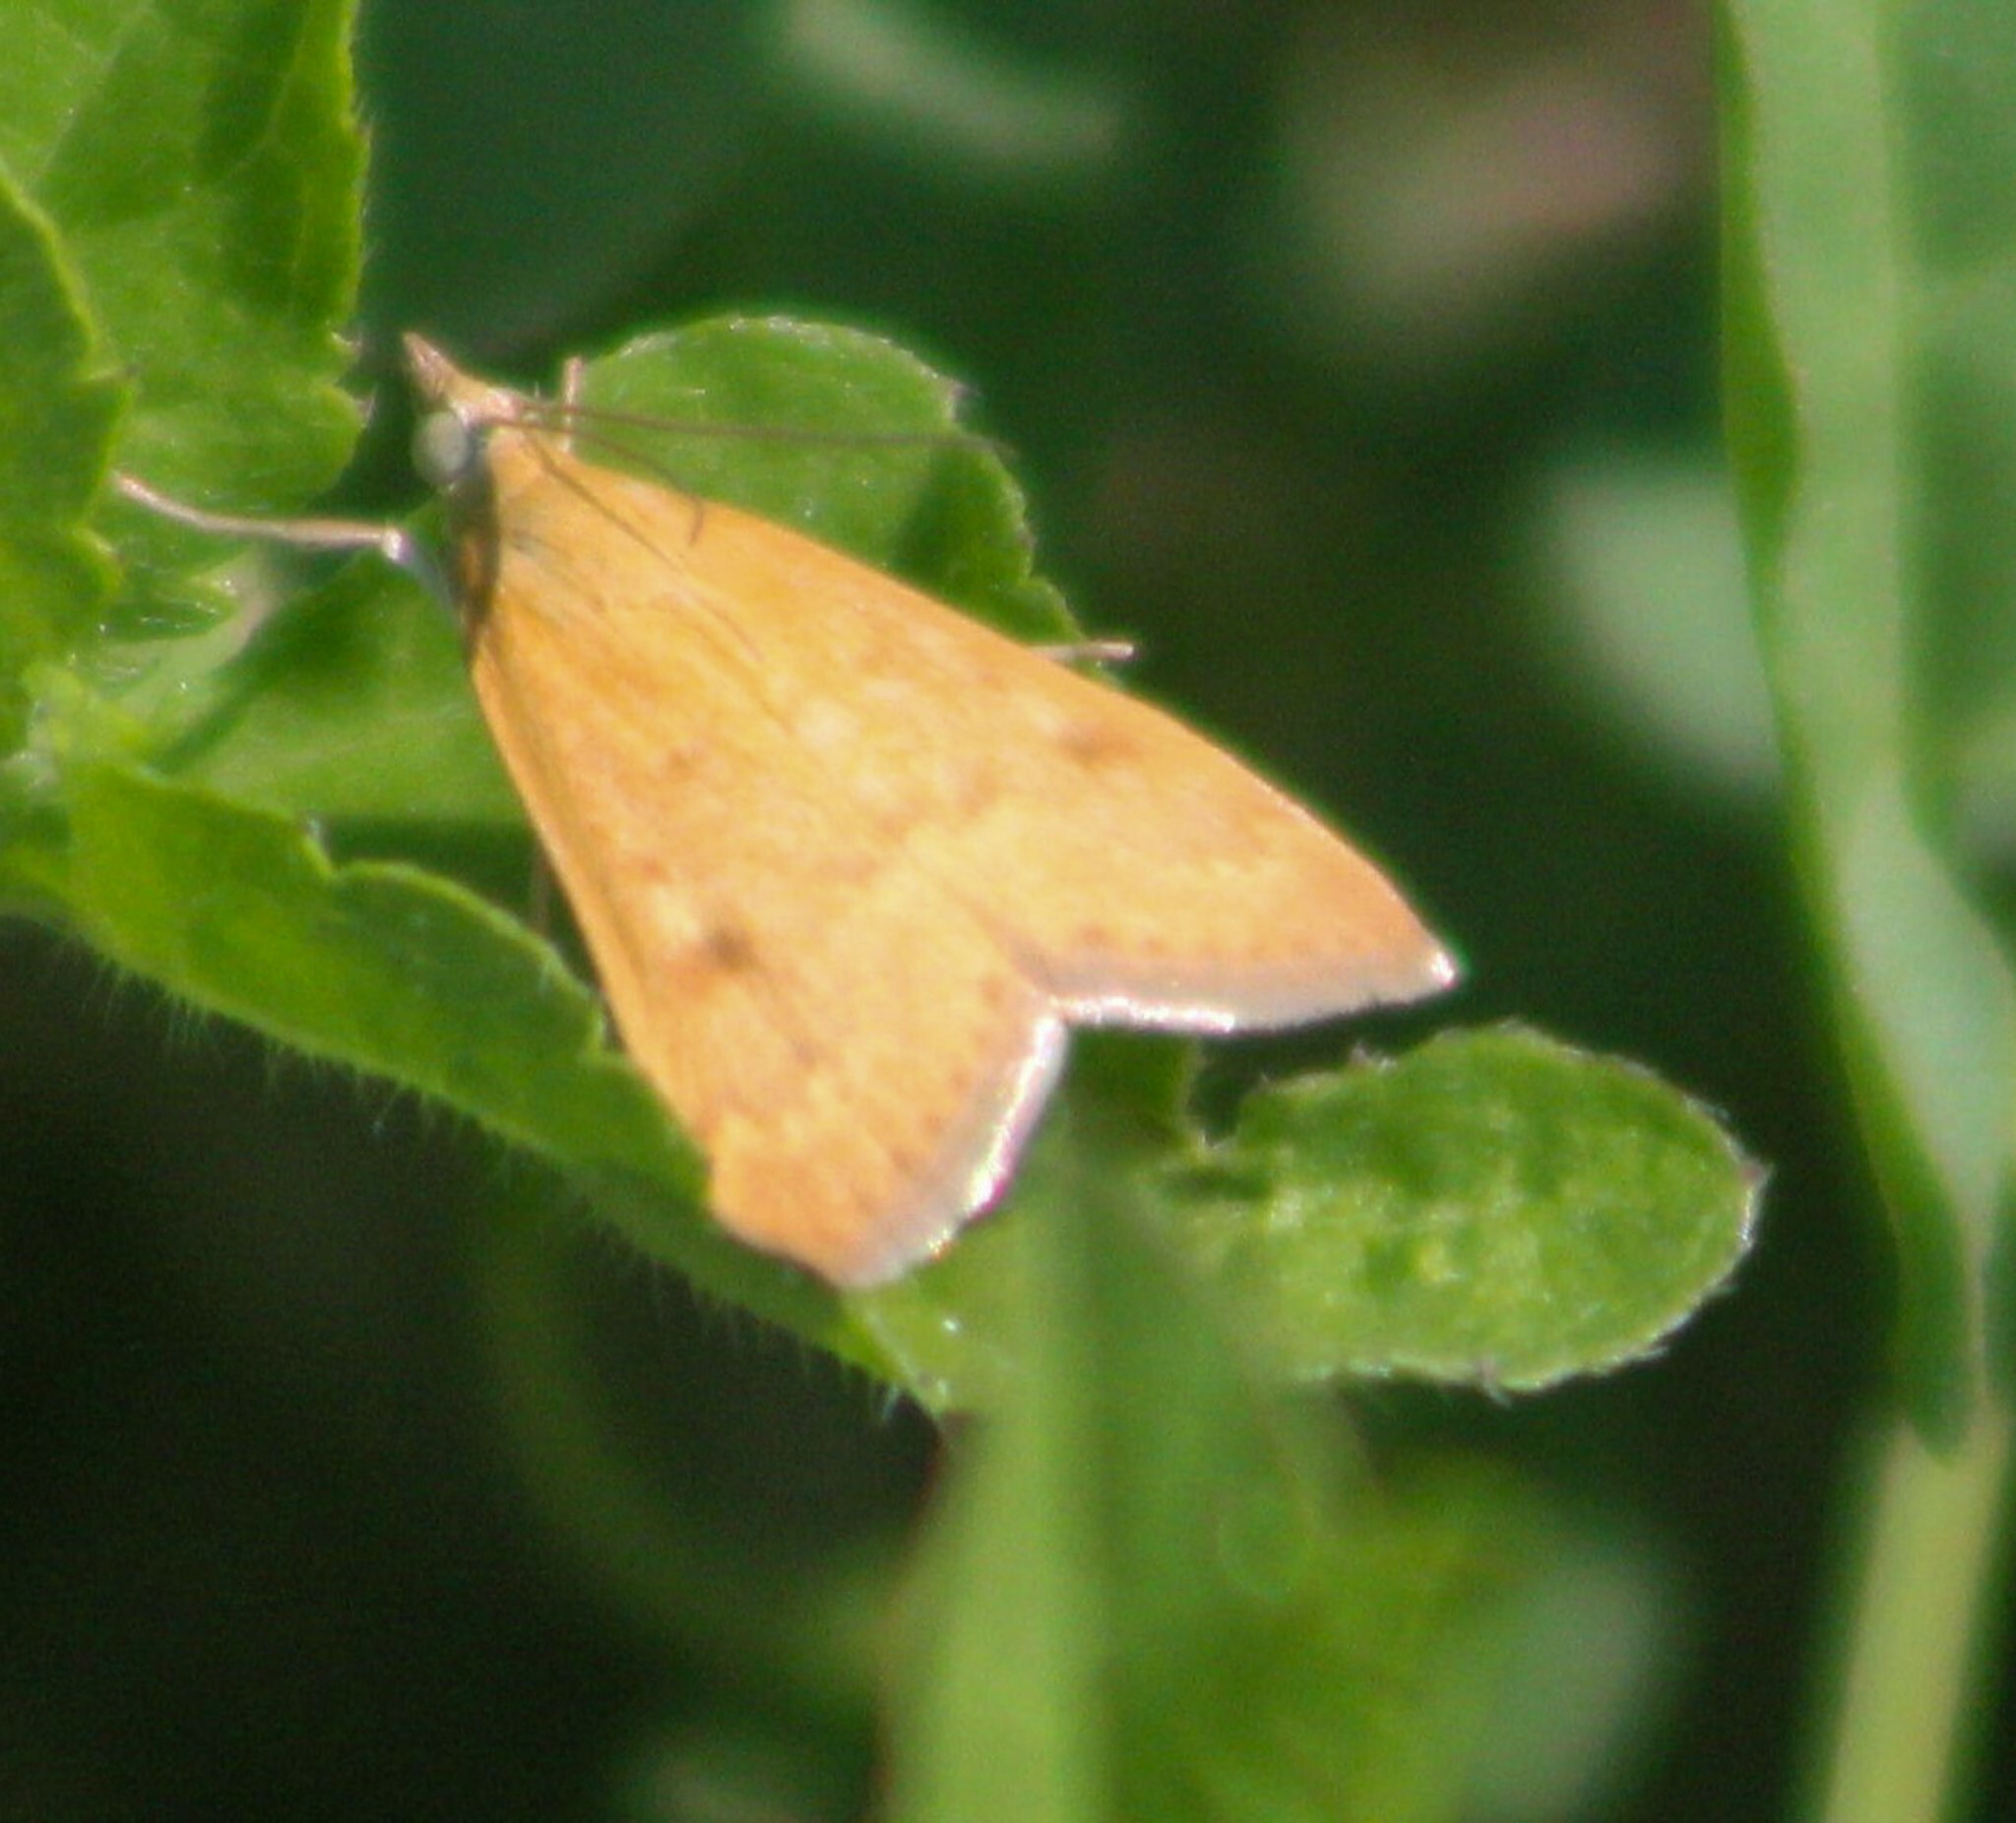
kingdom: Animalia
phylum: Arthropoda
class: Insecta
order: Lepidoptera
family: Crambidae
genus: Achyra
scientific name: Achyra rantalis
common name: Garden webworm
